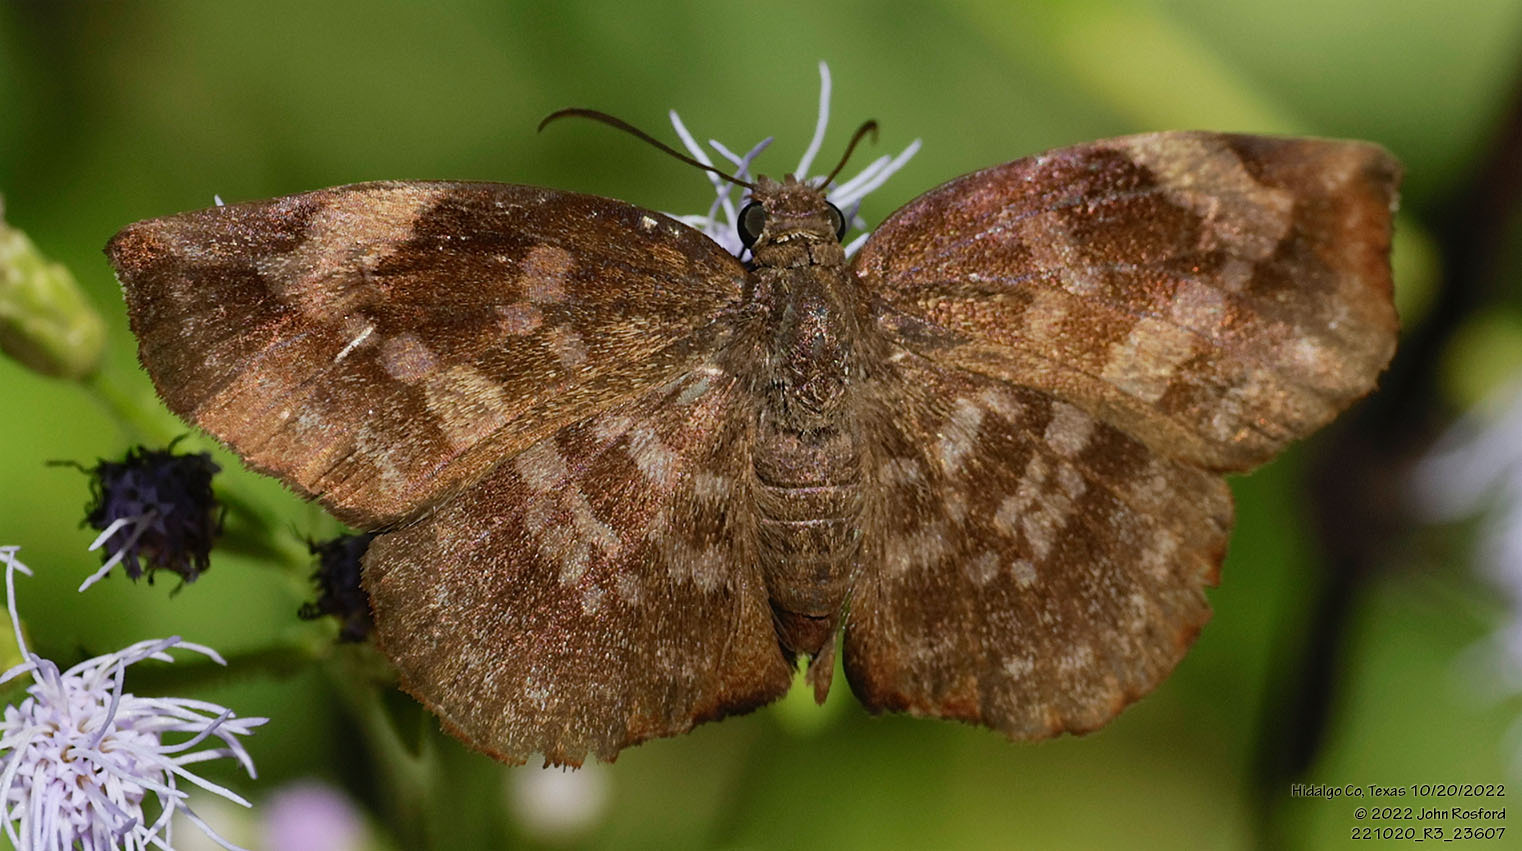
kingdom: Animalia
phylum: Arthropoda
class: Insecta
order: Lepidoptera
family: Hesperiidae
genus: Achlyodes
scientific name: Achlyodes thraso
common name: Sickle-winged skipper
